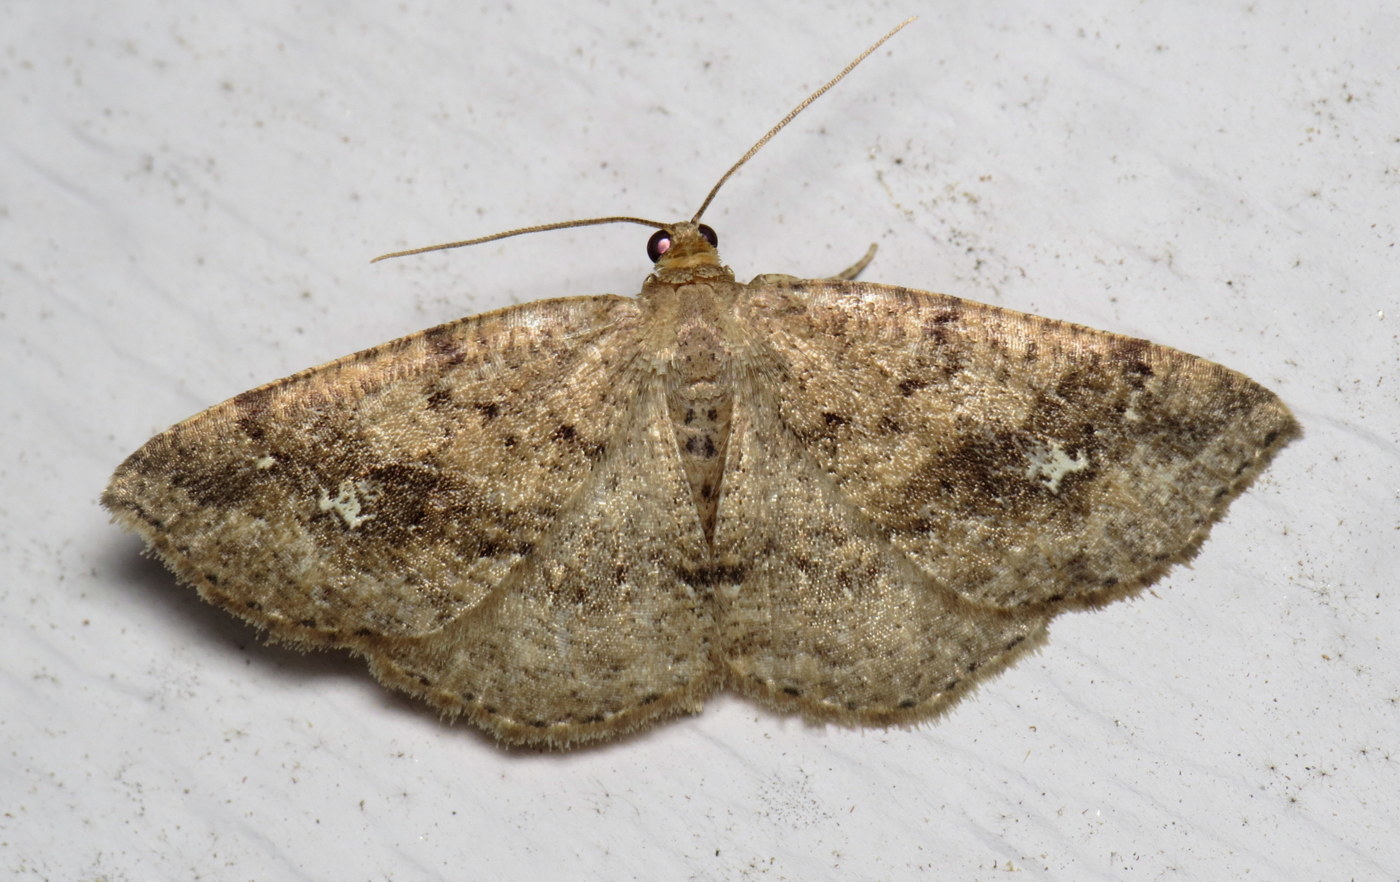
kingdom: Animalia
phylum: Arthropoda
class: Insecta
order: Lepidoptera
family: Geometridae
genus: Homochlodes
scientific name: Homochlodes fritillaria
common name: Pale homochlodes
